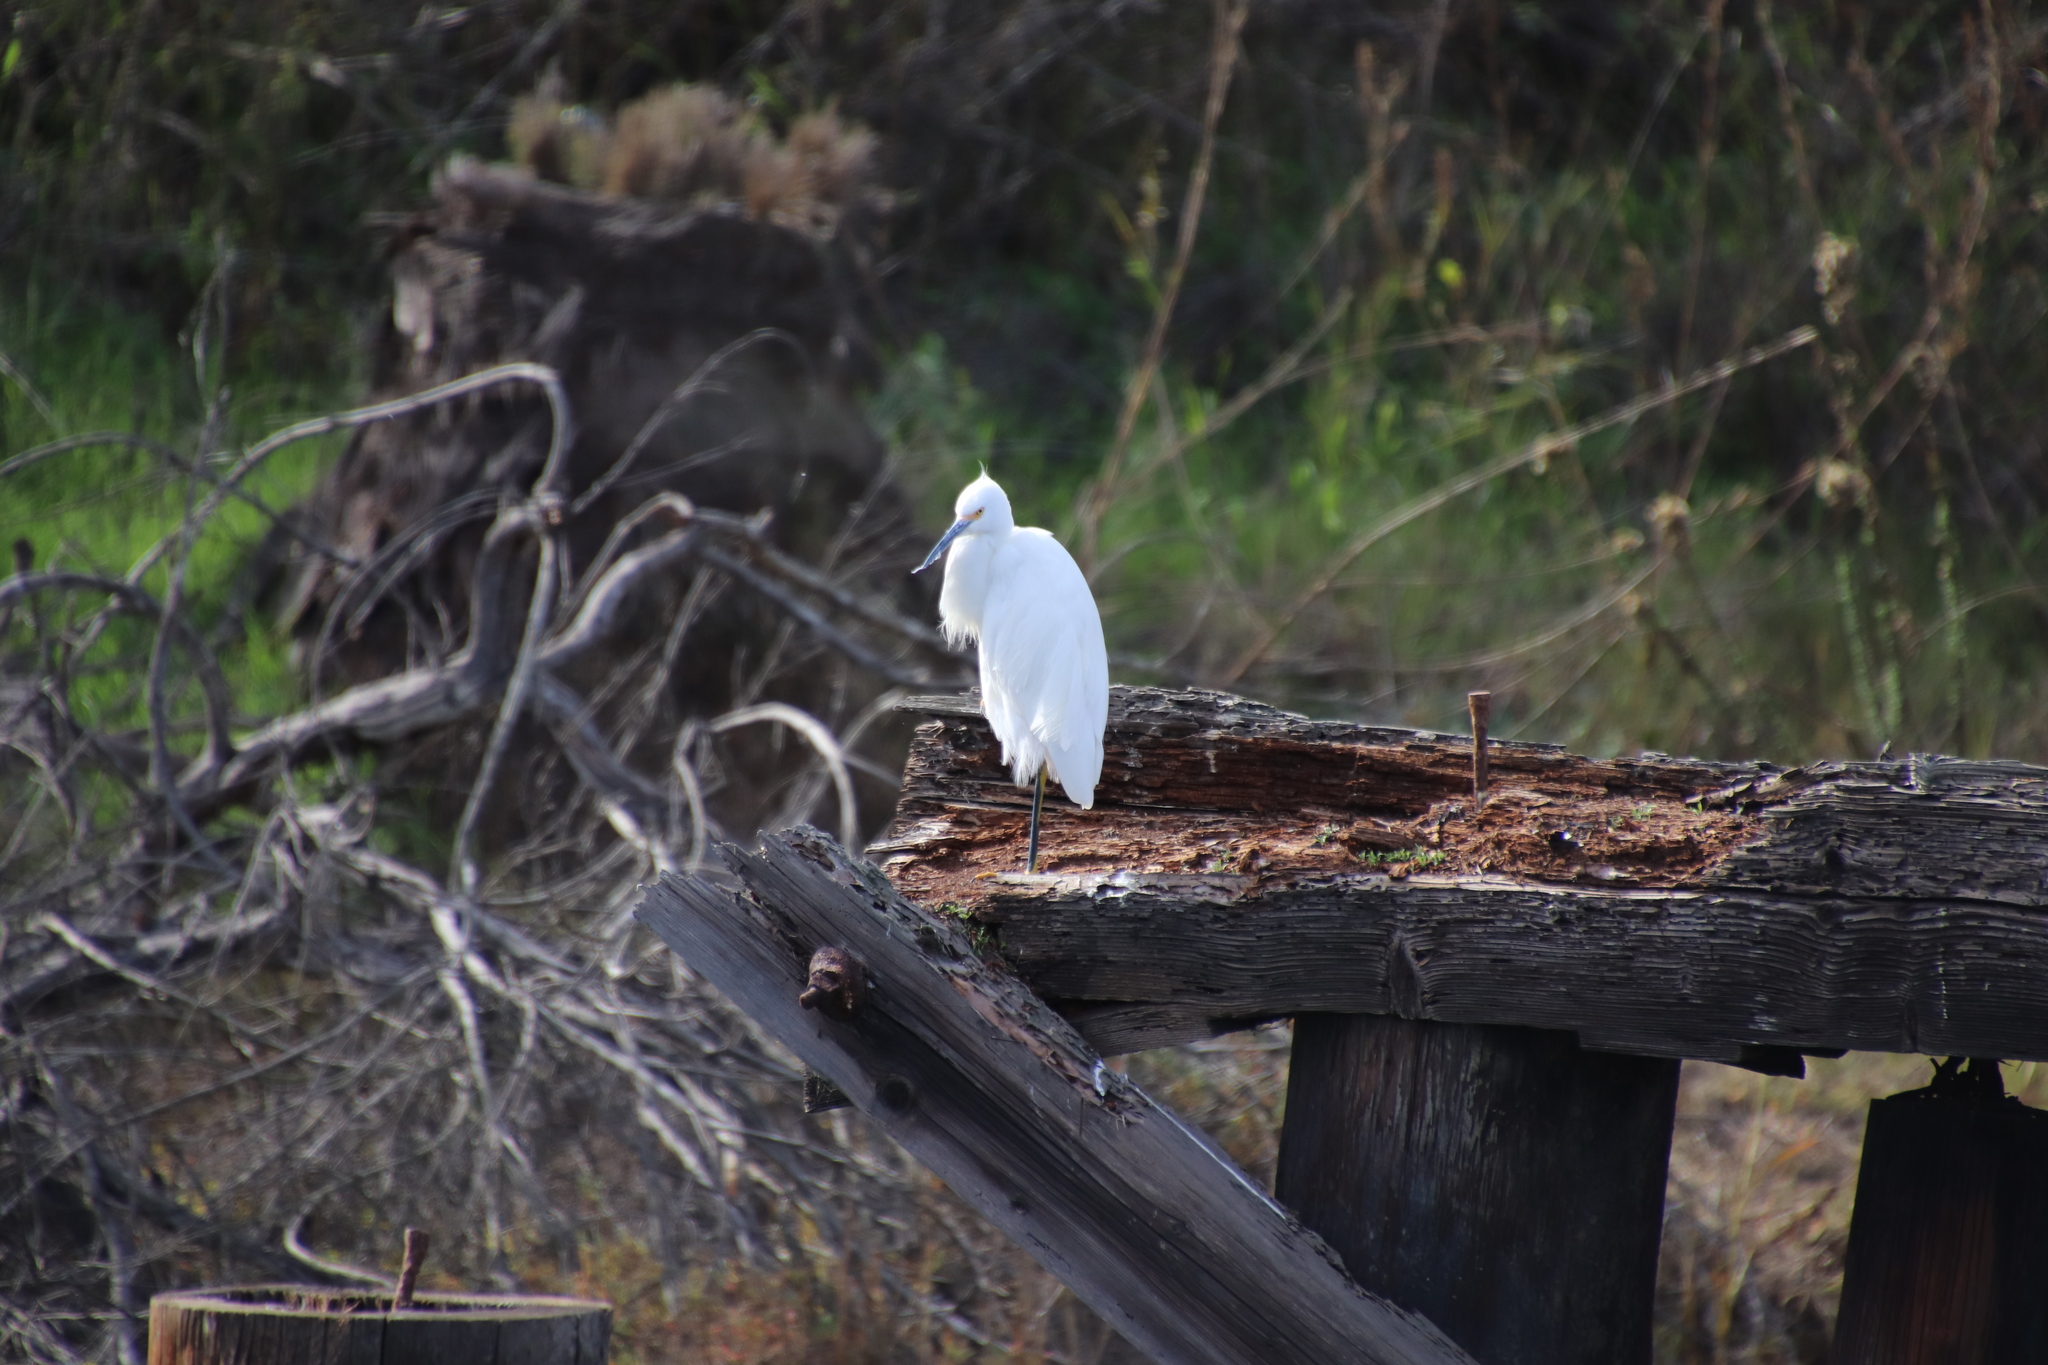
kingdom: Animalia
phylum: Chordata
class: Aves
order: Pelecaniformes
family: Ardeidae
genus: Egretta
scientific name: Egretta thula
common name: Snowy egret
